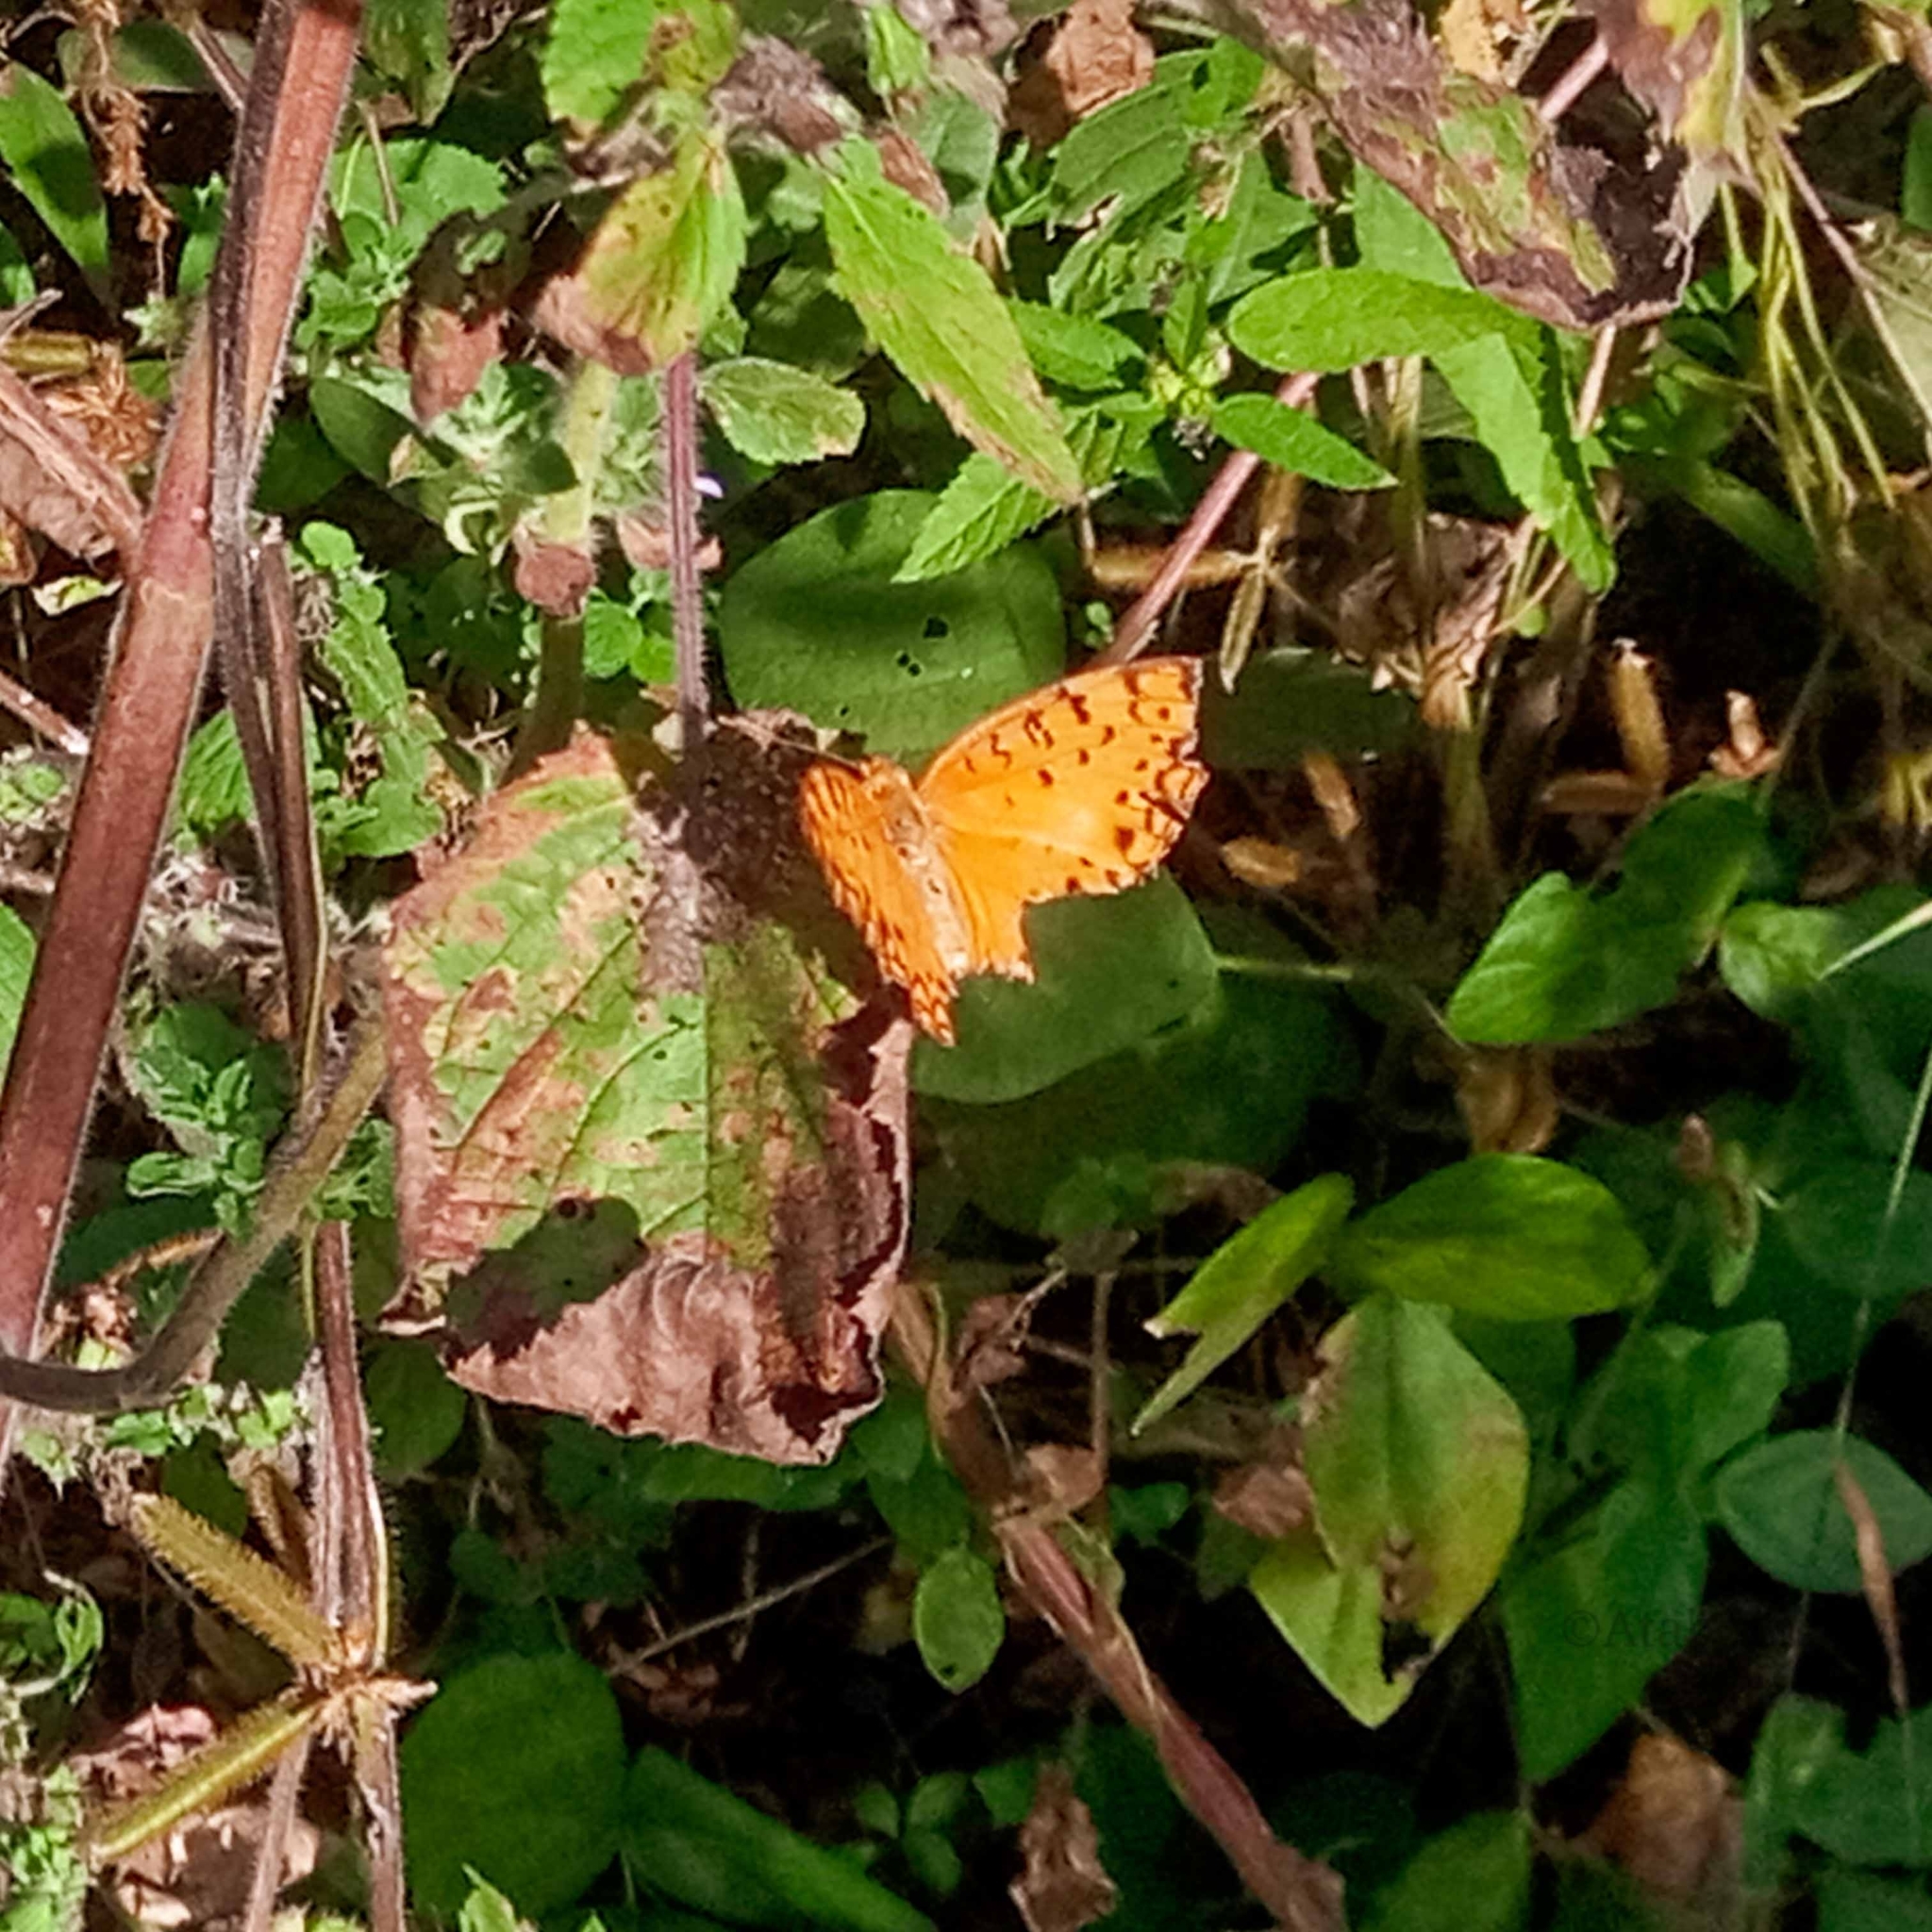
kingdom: Animalia
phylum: Arthropoda
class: Insecta
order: Lepidoptera
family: Nymphalidae
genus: Phalanta
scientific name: Phalanta phalantha
